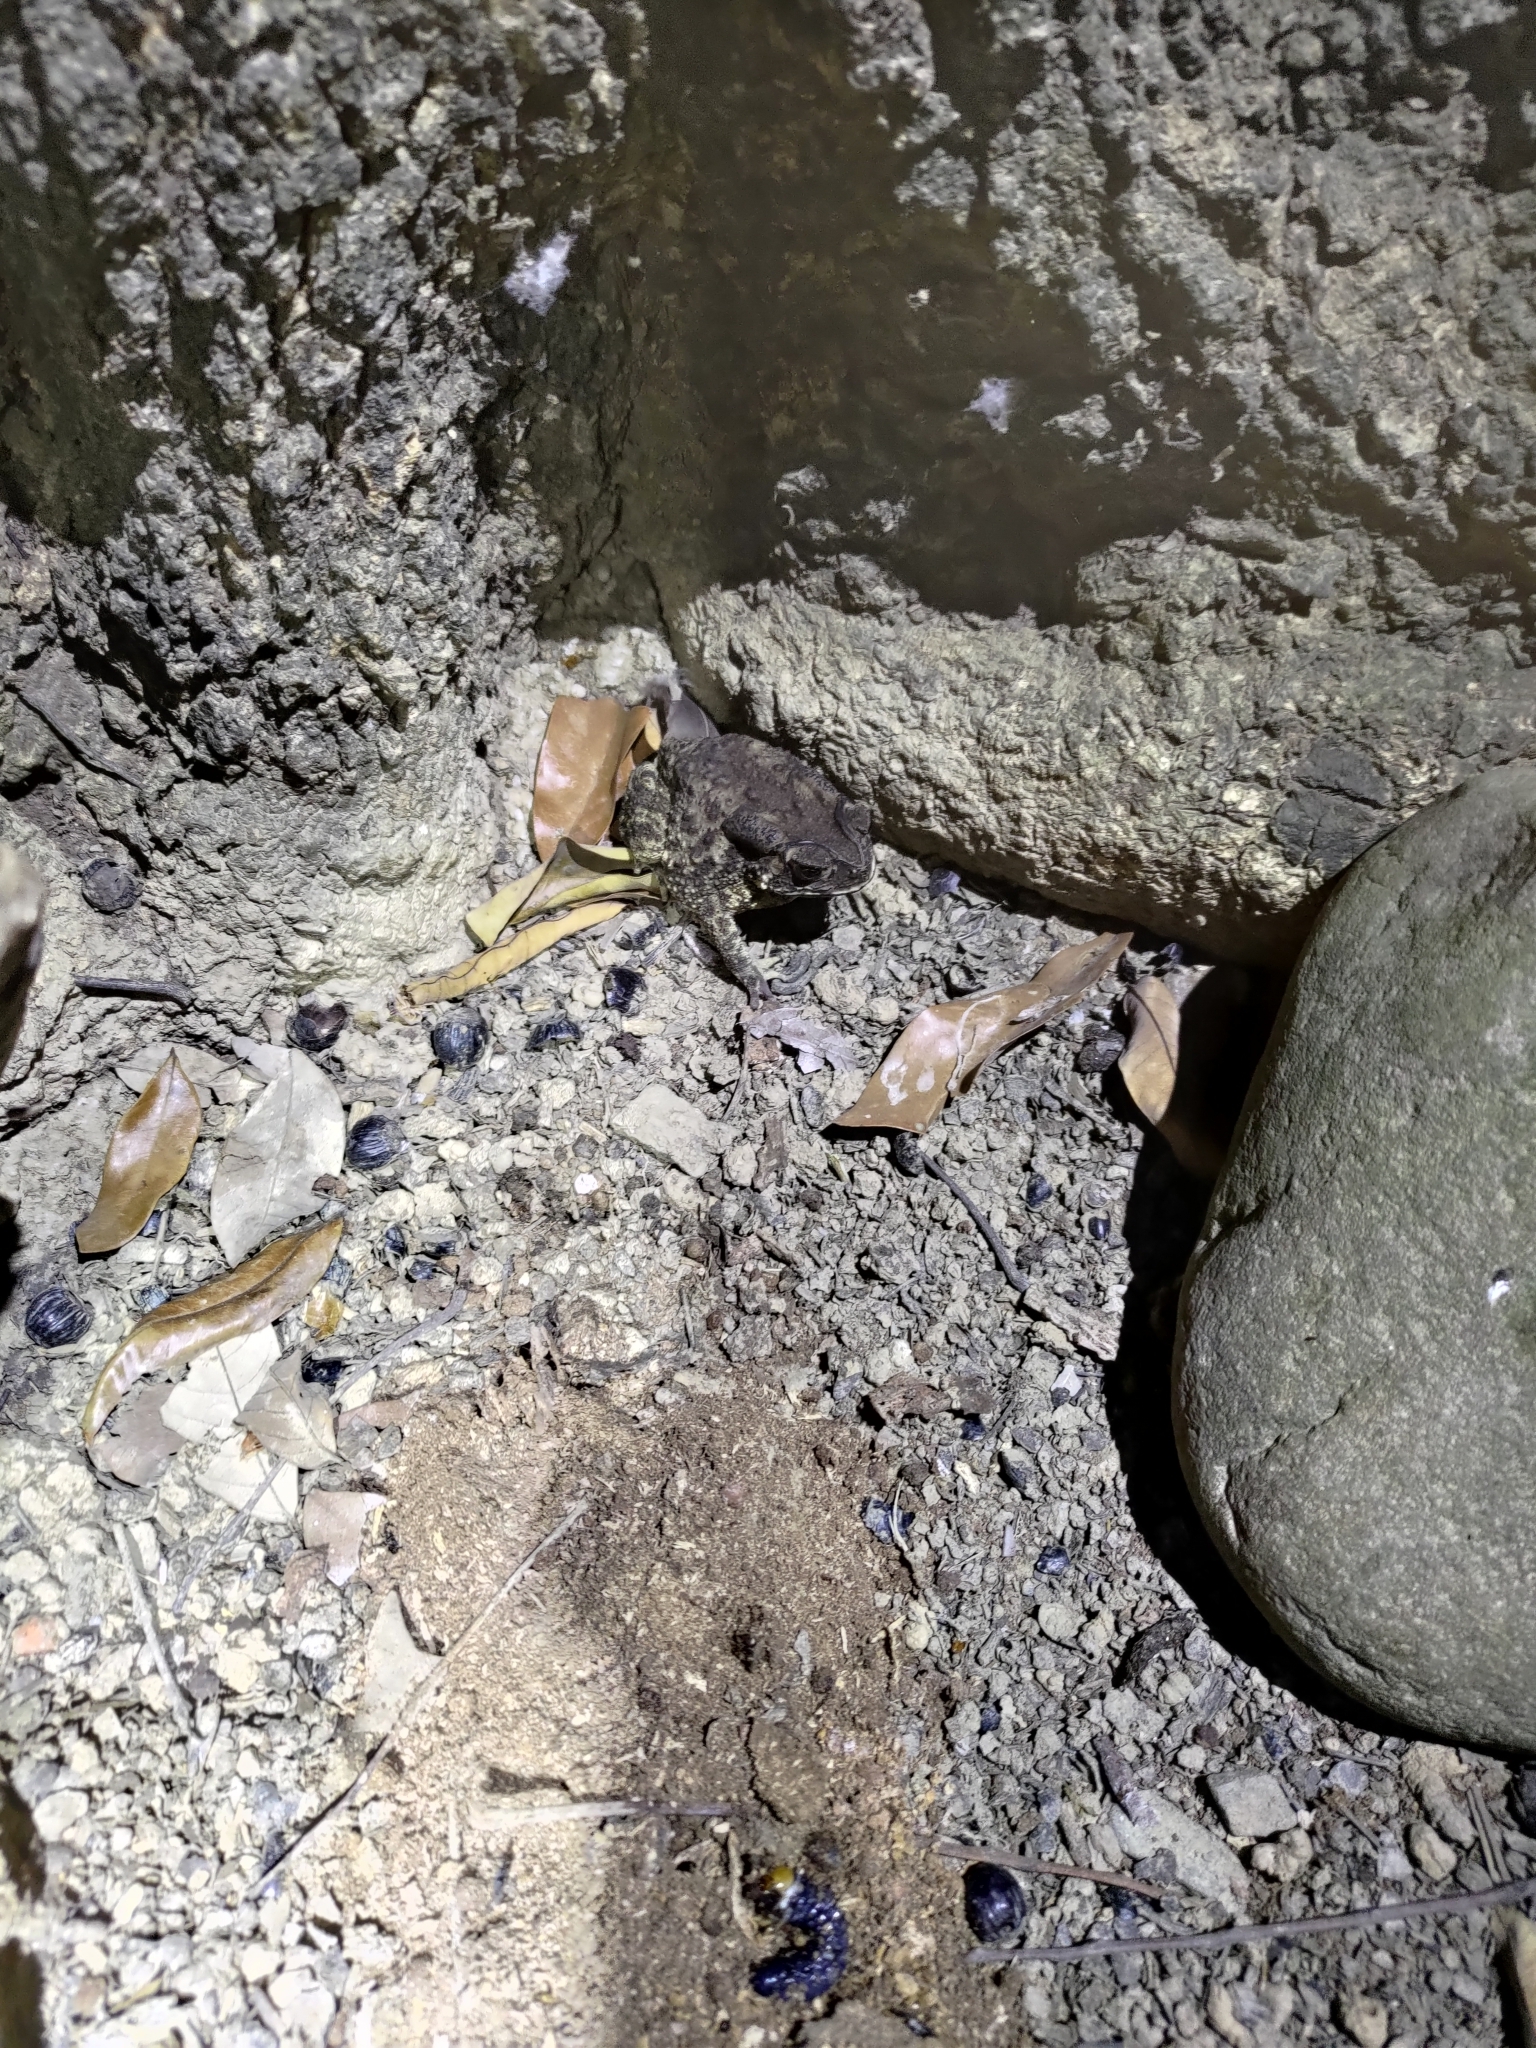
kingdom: Animalia
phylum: Chordata
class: Amphibia
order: Anura
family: Bufonidae
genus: Duttaphrynus
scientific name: Duttaphrynus melanostictus
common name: Common sunda toad
